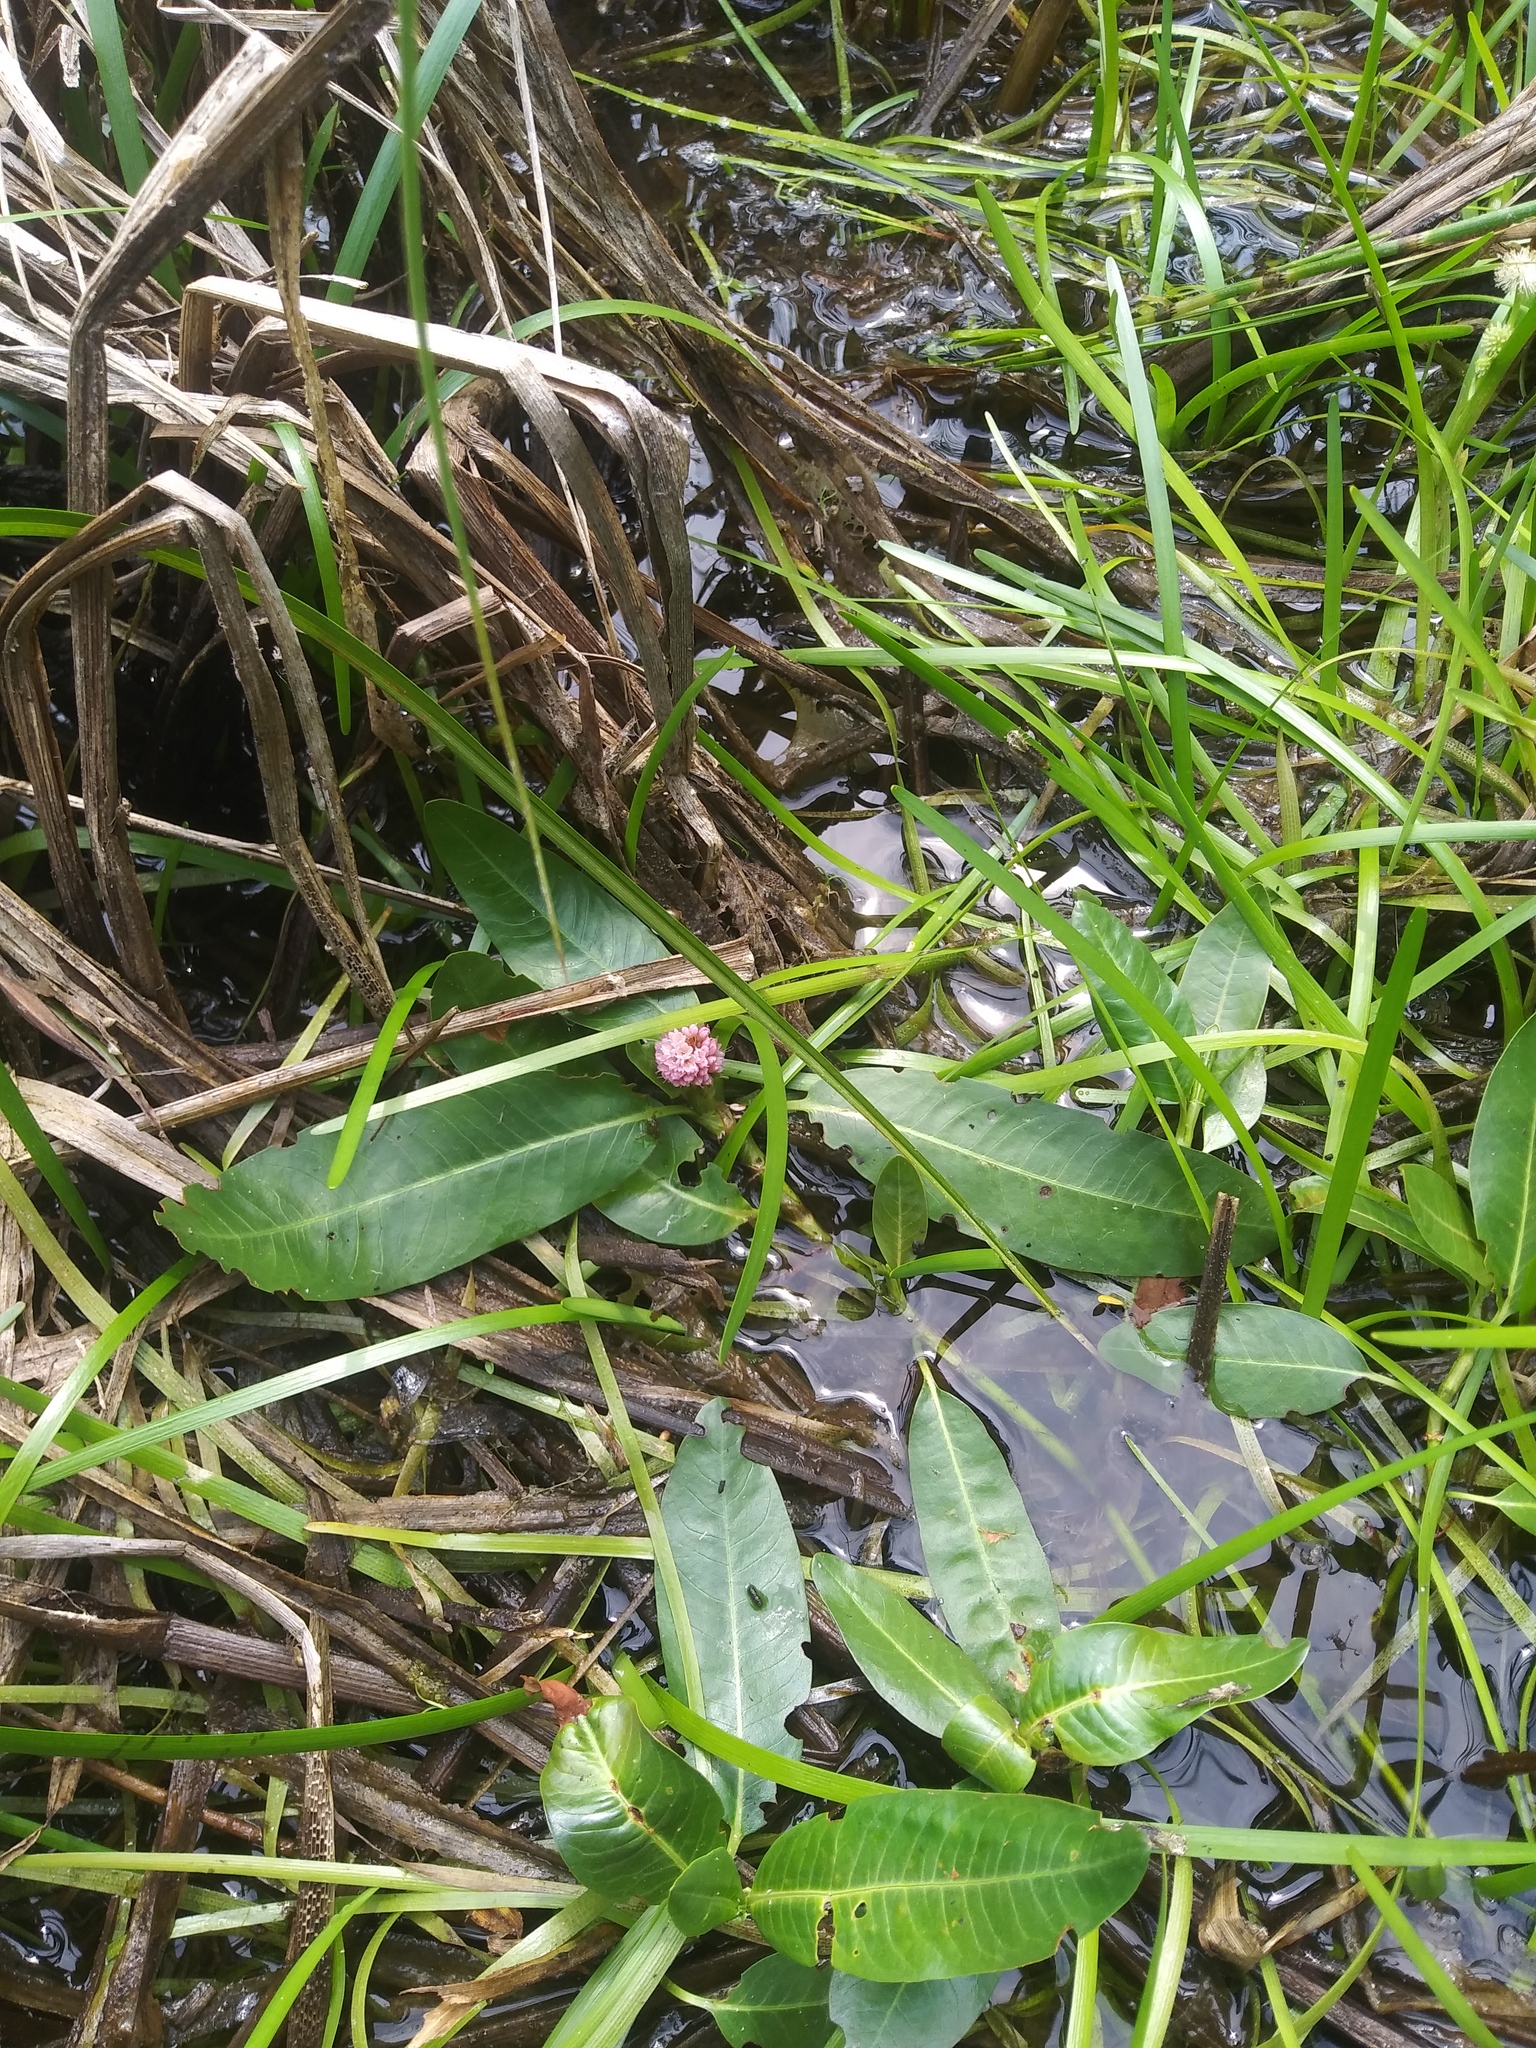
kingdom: Plantae
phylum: Tracheophyta
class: Magnoliopsida
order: Caryophyllales
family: Polygonaceae
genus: Persicaria
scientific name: Persicaria amphibia
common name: Amphibious bistort
